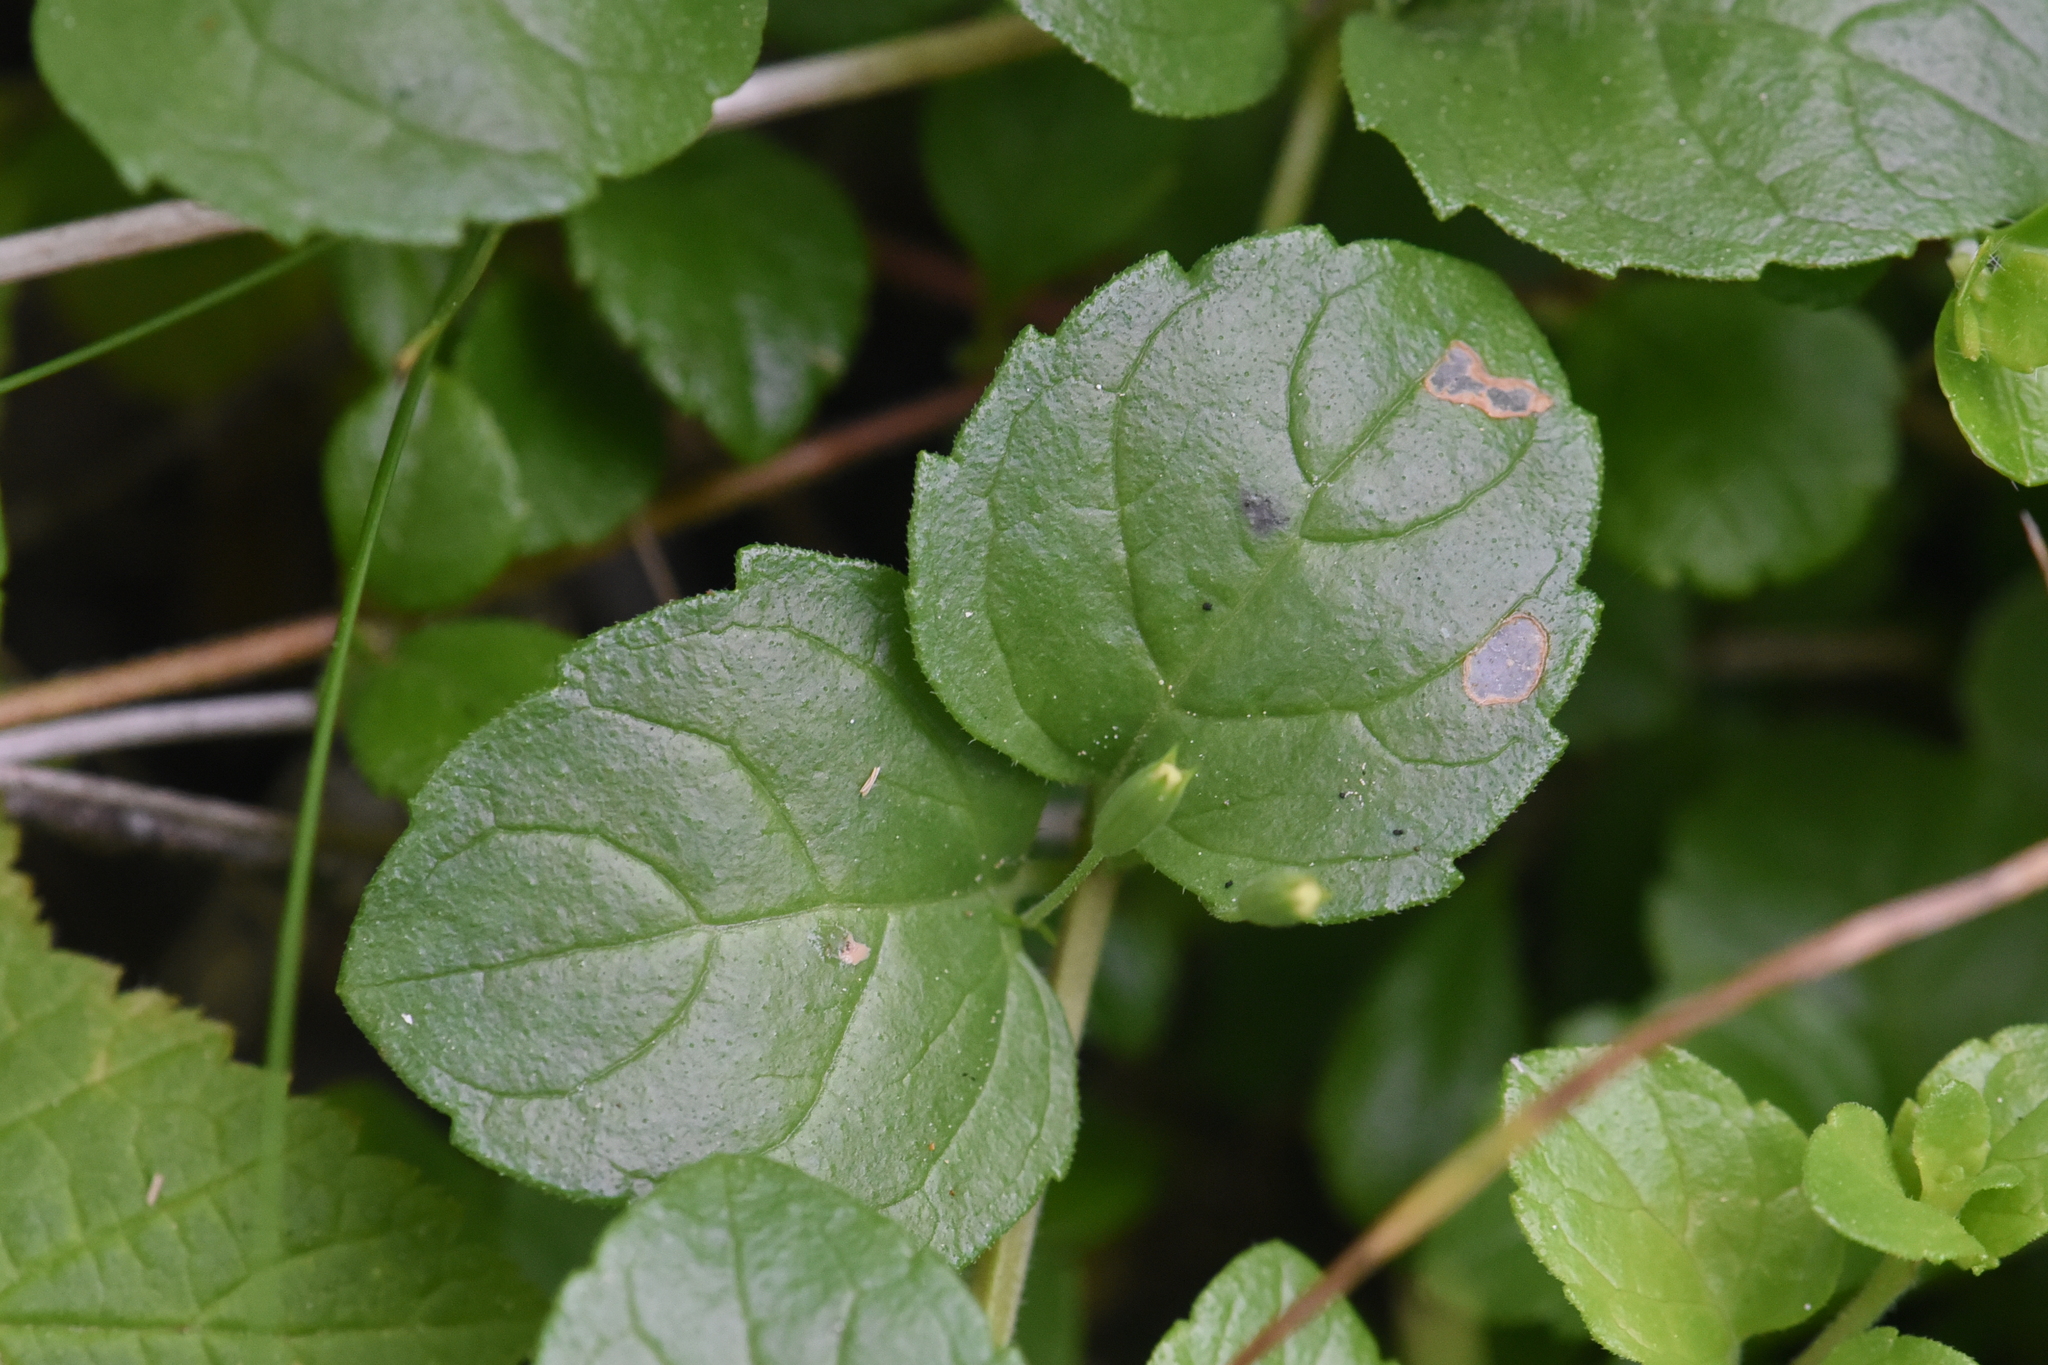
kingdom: Plantae
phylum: Tracheophyta
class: Magnoliopsida
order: Lamiales
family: Lamiaceae
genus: Micromeria
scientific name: Micromeria douglasii
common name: Yerba buena
